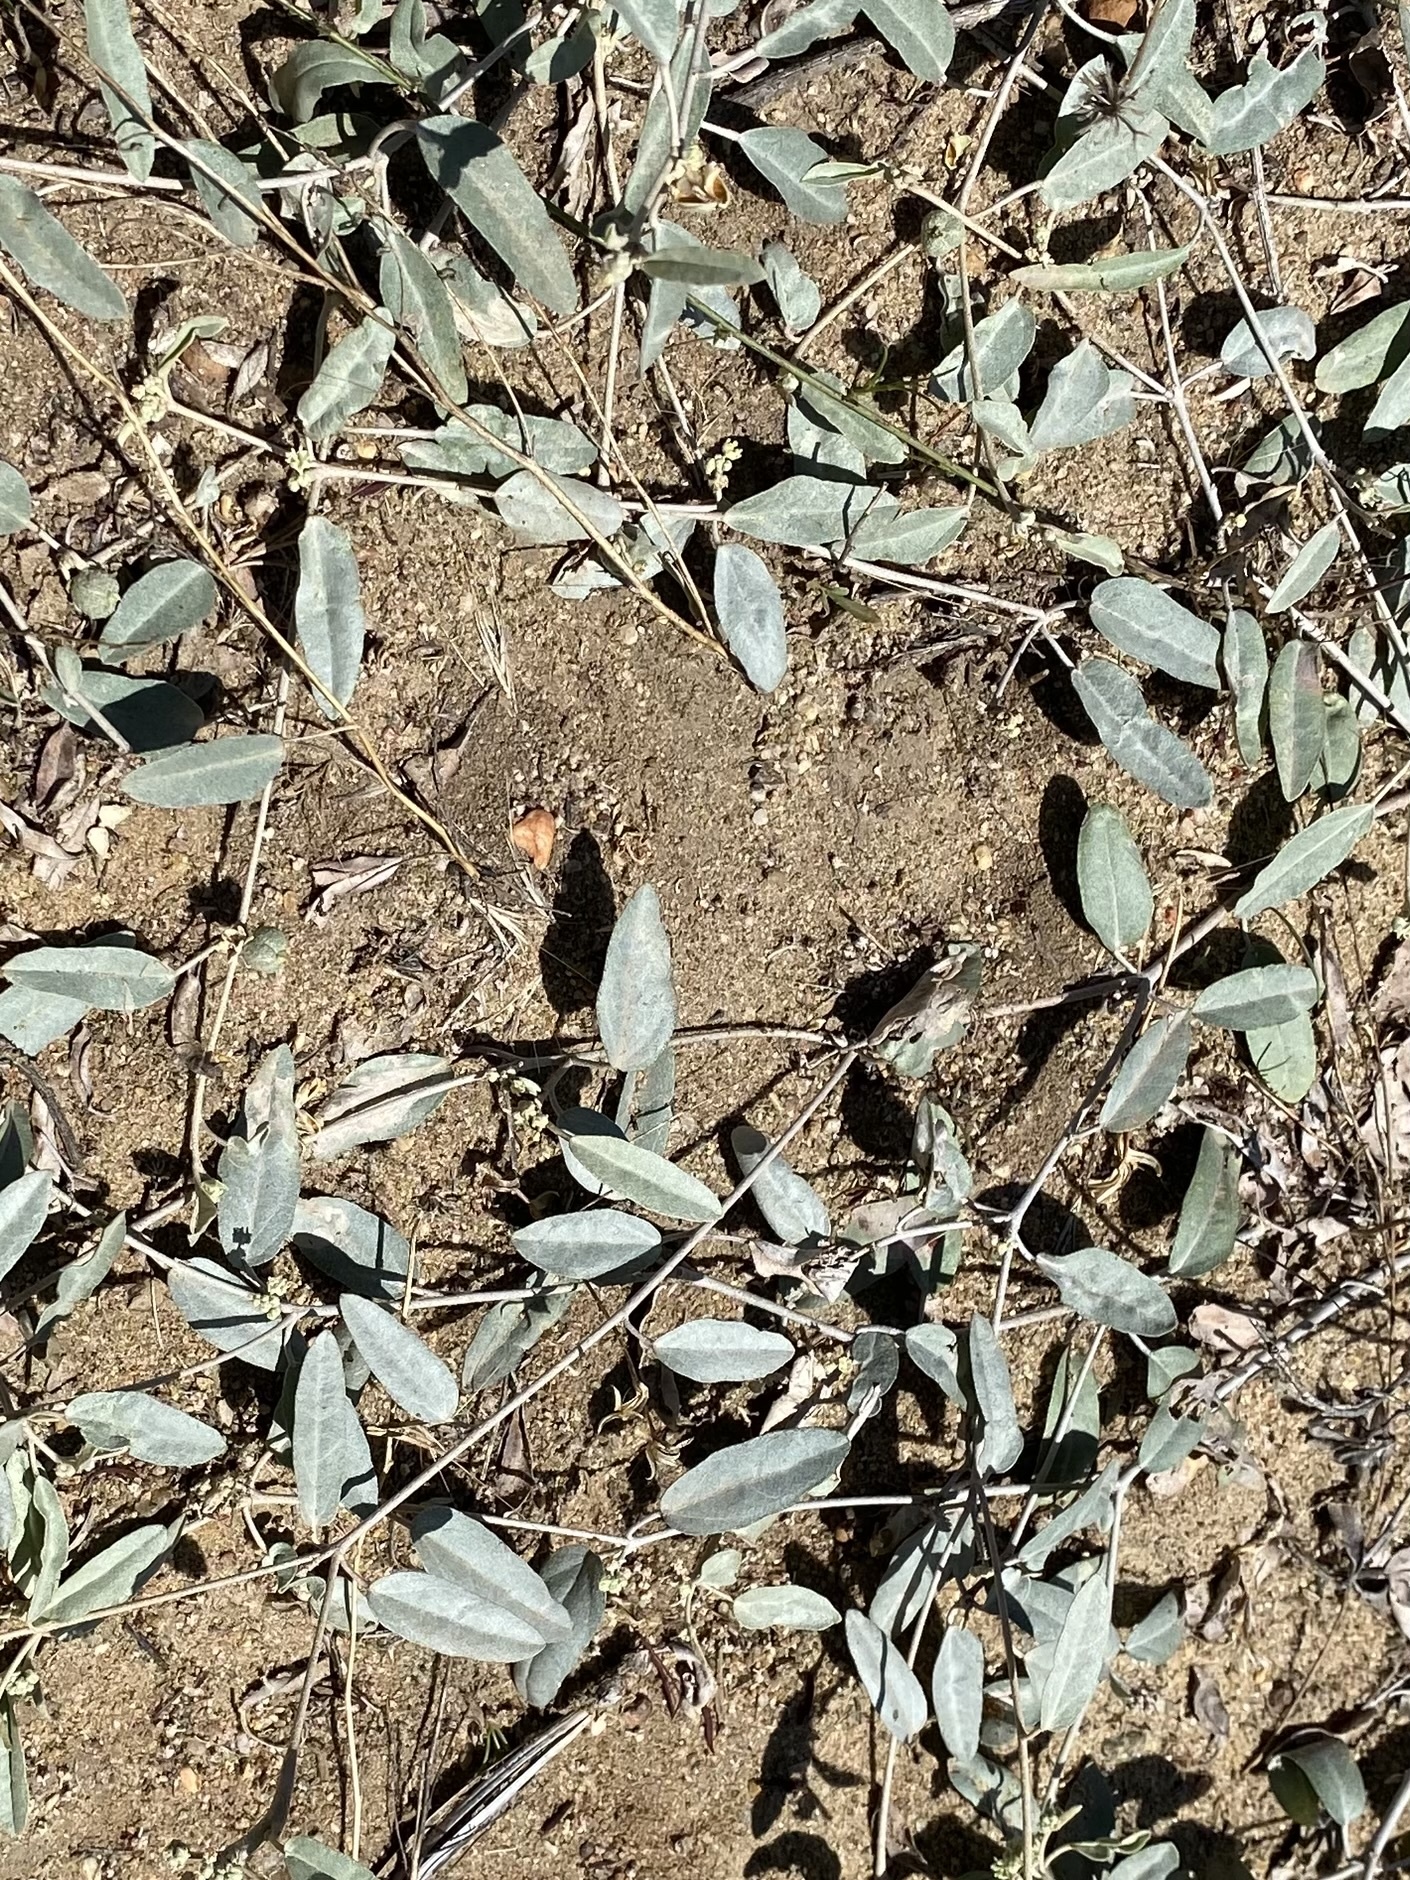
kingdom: Plantae
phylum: Tracheophyta
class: Magnoliopsida
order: Malpighiales
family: Euphorbiaceae
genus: Croton
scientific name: Croton californicus
